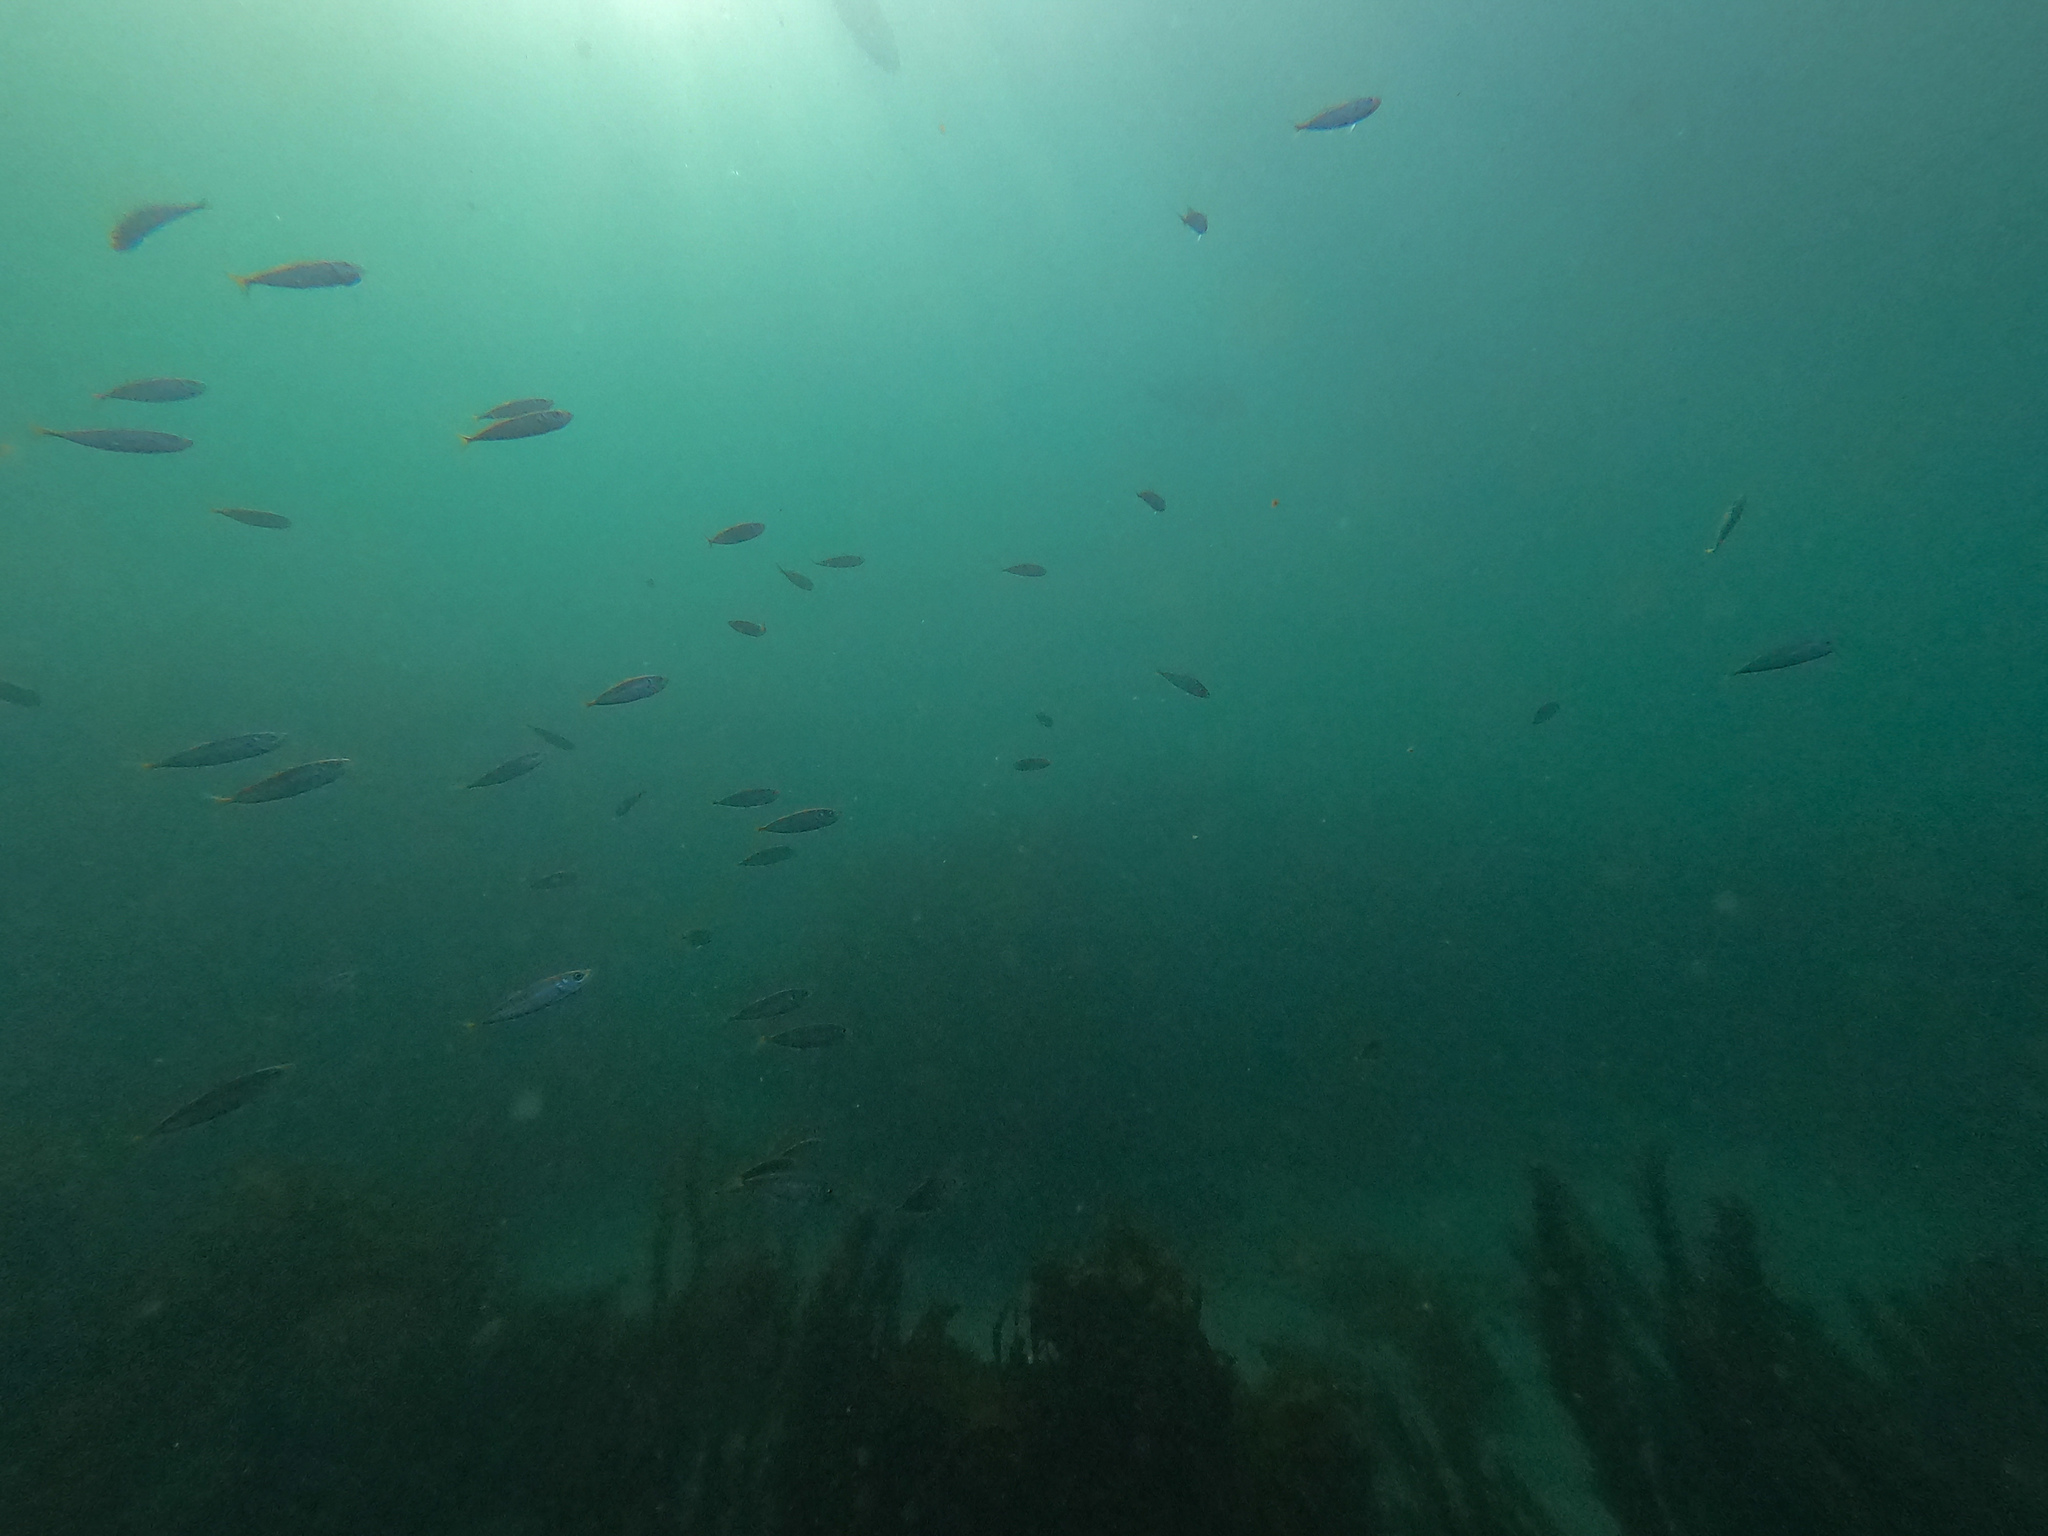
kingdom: Animalia
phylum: Chordata
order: Perciformes
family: Carangidae
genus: Trachurus
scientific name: Trachurus novaezelandiae
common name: Yellowtail horse mackerel
